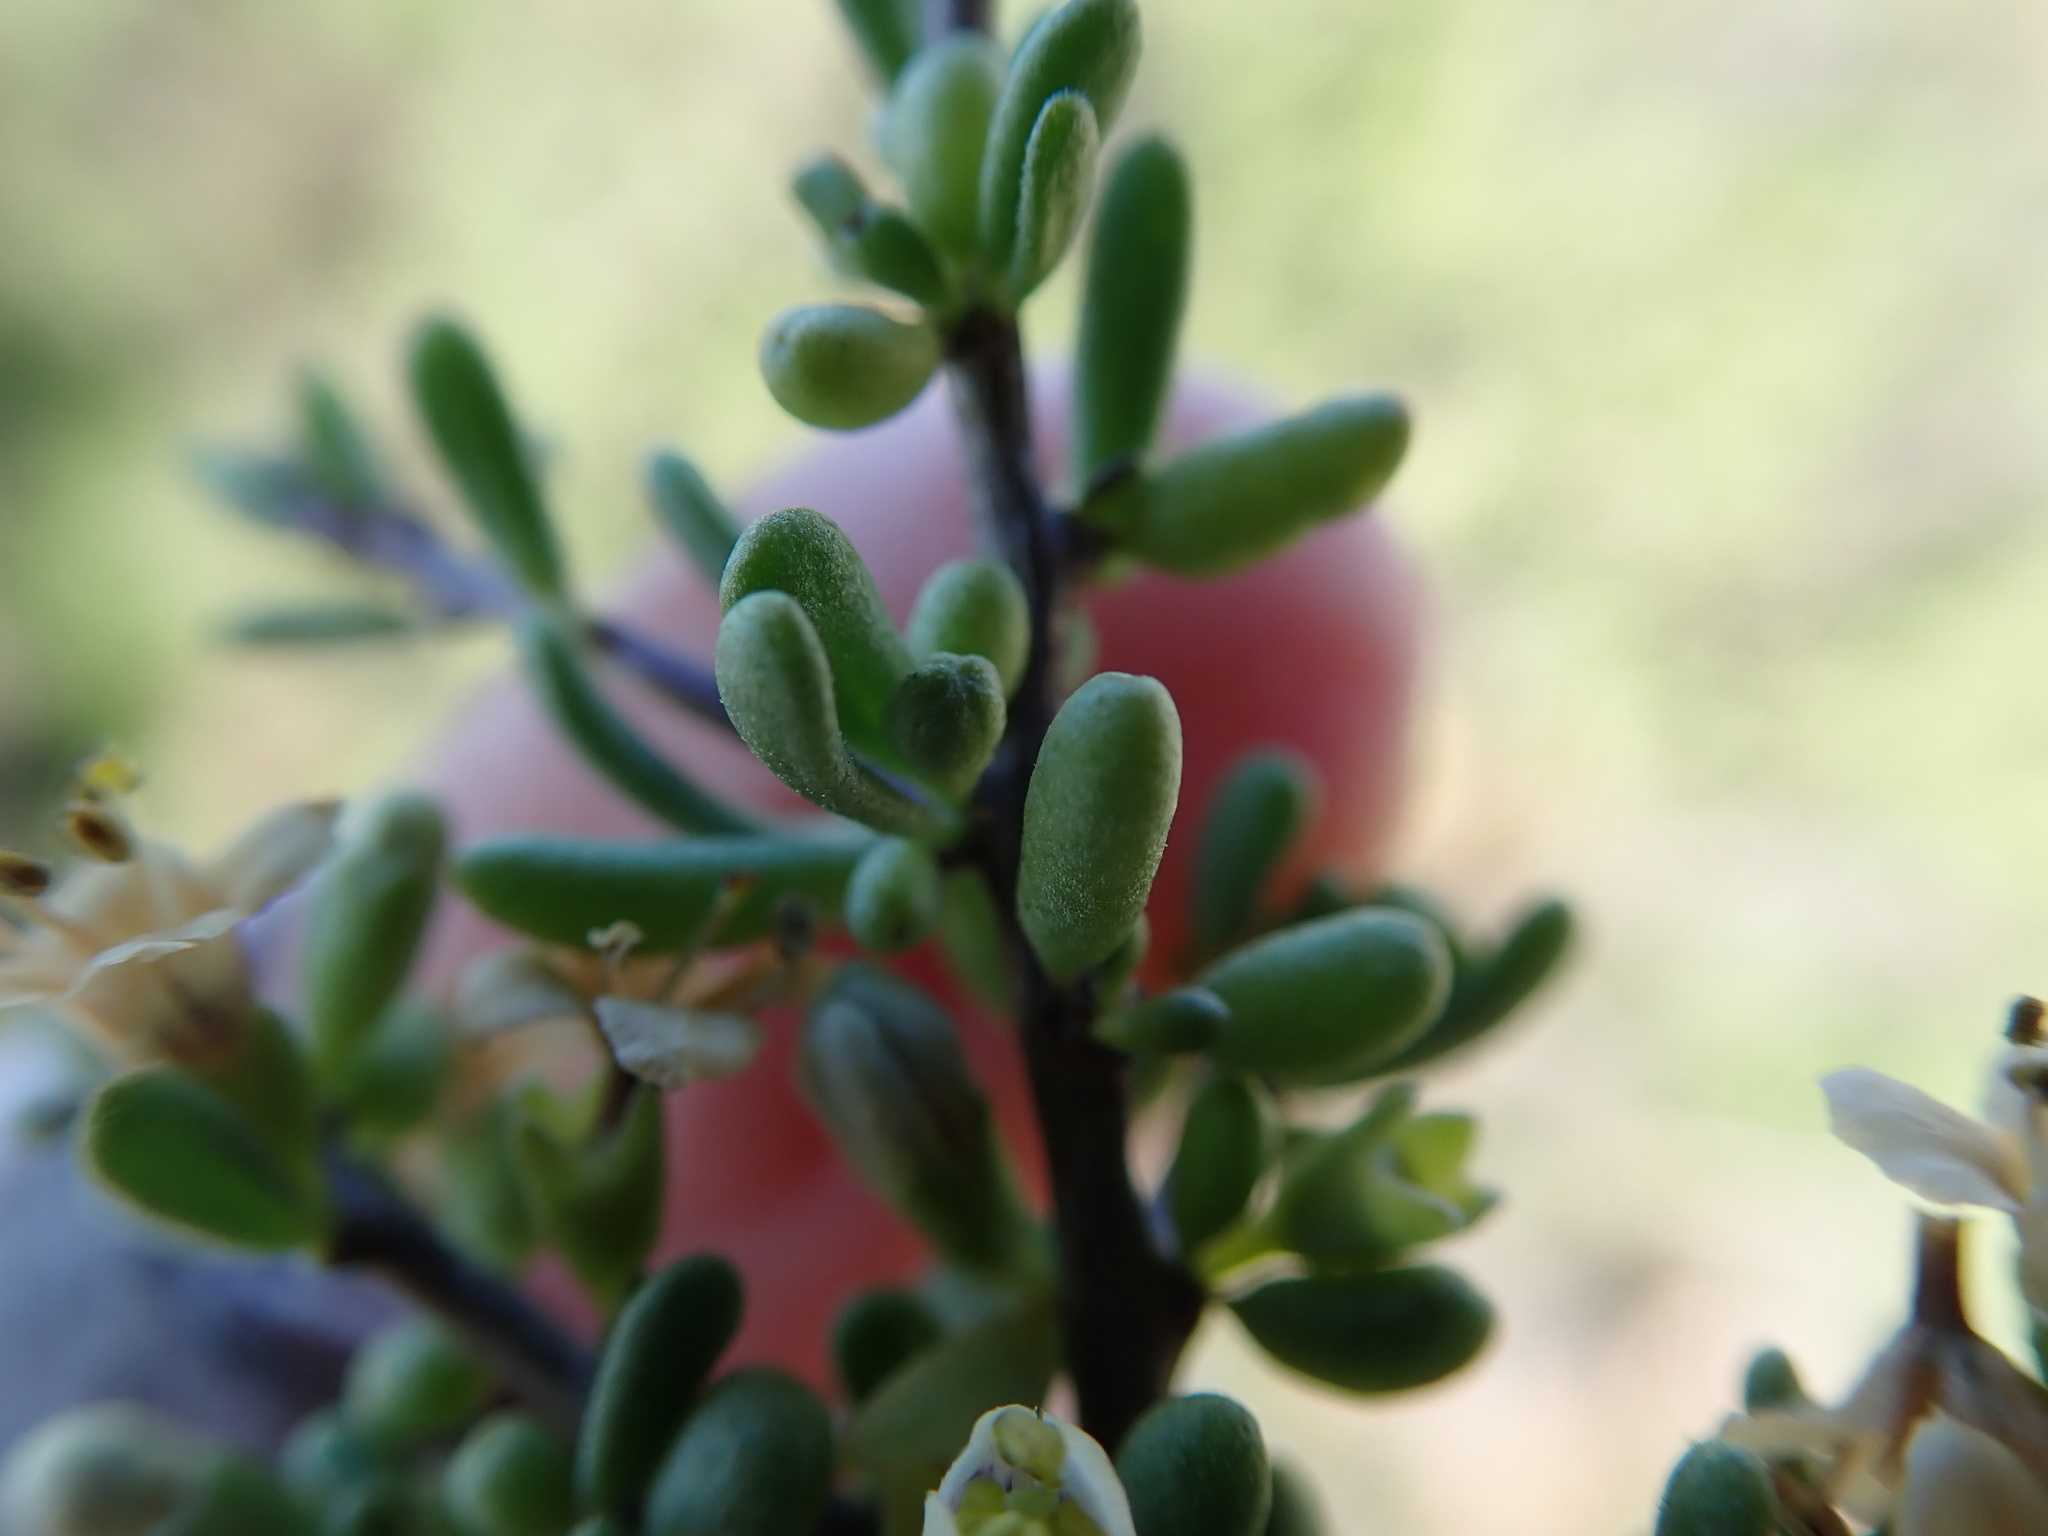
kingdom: Plantae
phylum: Tracheophyta
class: Magnoliopsida
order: Solanales
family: Solanaceae
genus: Lycium
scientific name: Lycium californicum
